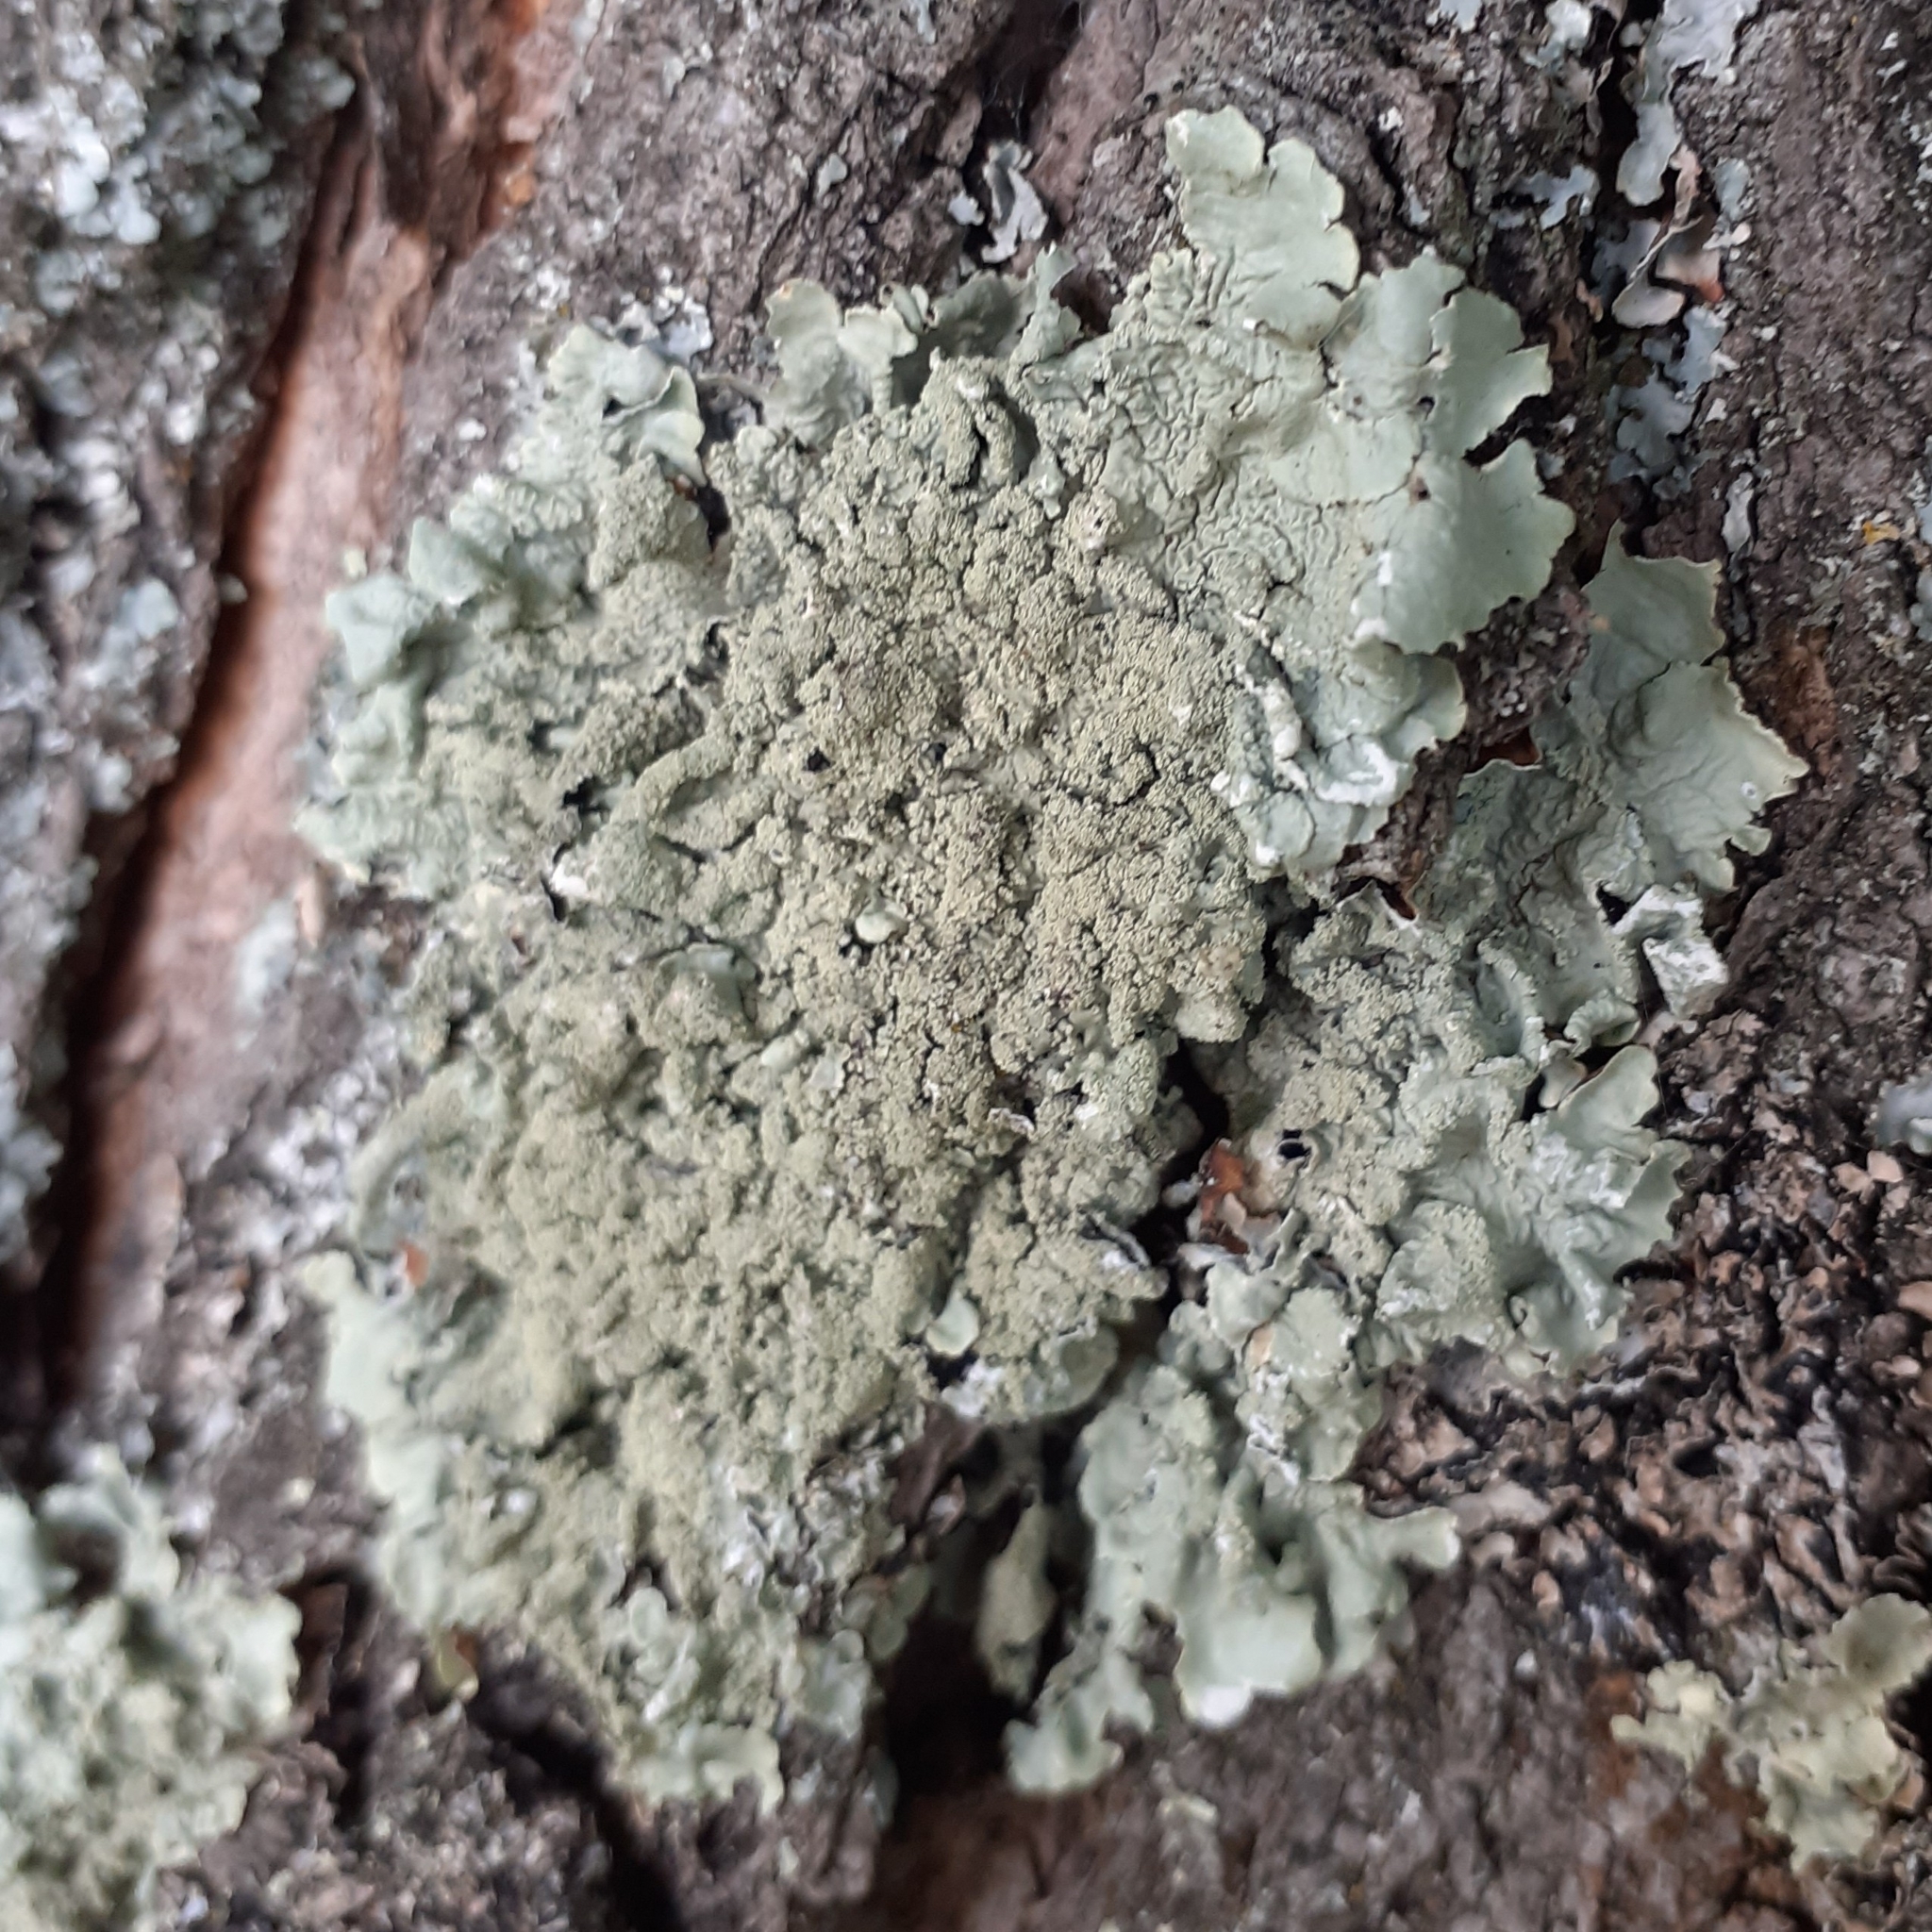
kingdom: Fungi
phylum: Ascomycota
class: Lecanoromycetes
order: Lecanorales
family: Parmeliaceae
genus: Flavoparmelia
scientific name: Flavoparmelia caperata
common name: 40-mile per hour lichen
